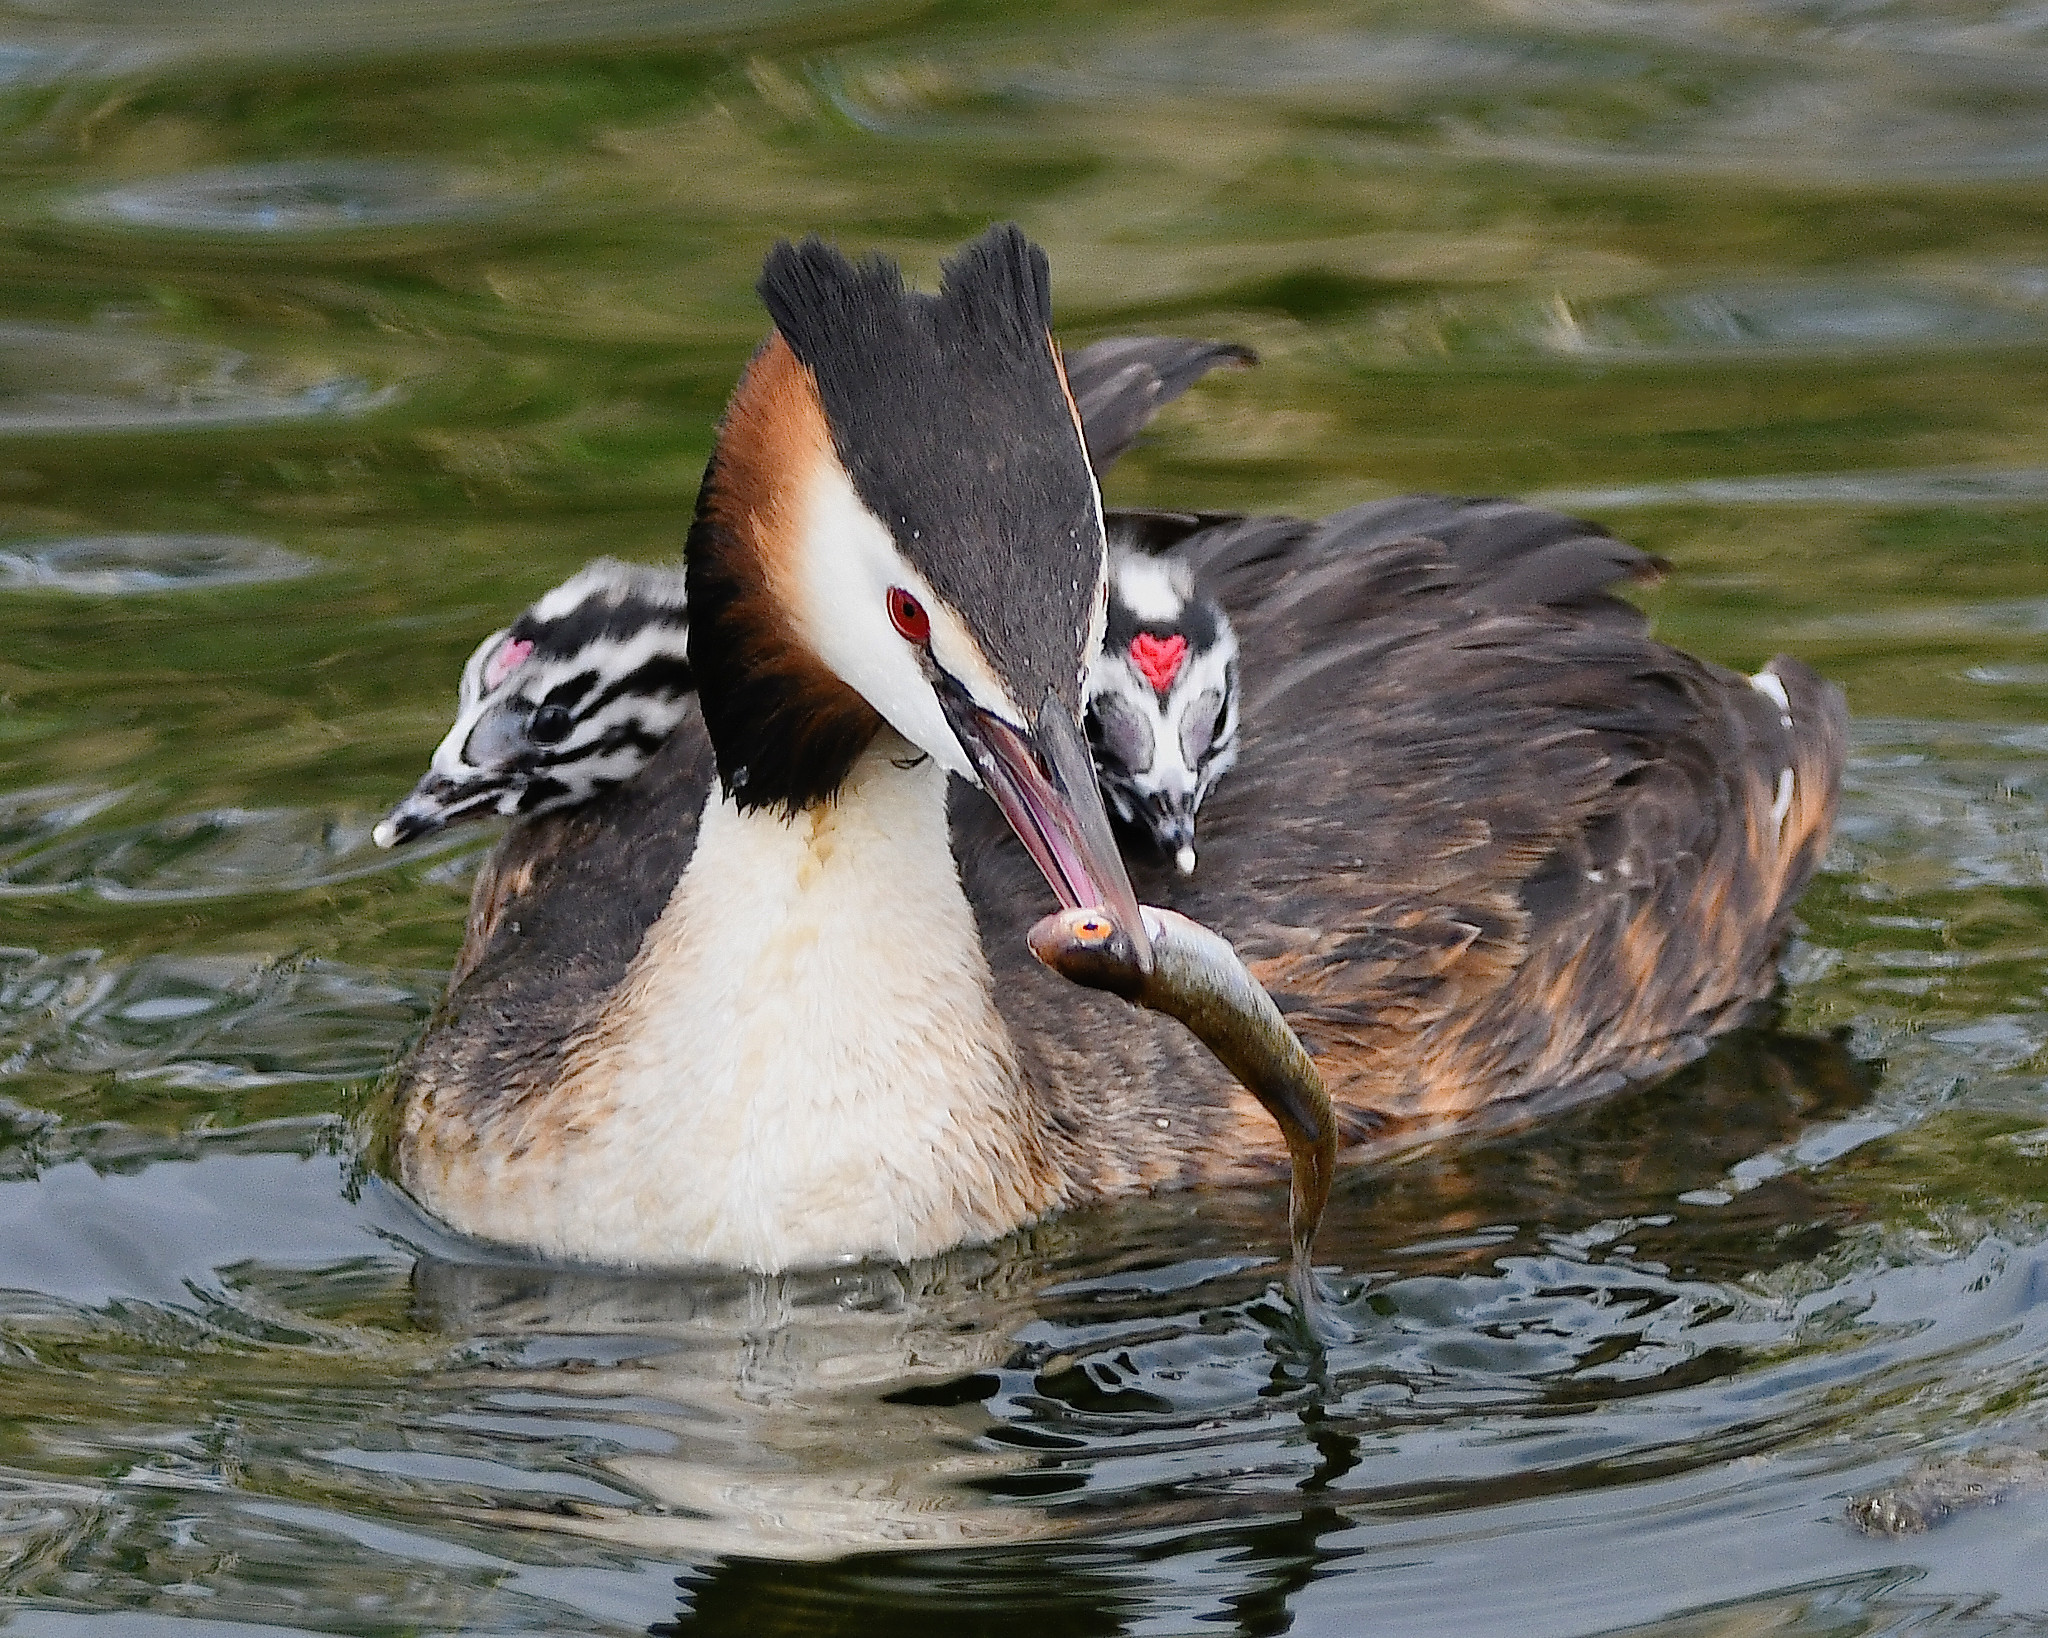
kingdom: Animalia
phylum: Chordata
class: Aves
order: Podicipediformes
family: Podicipedidae
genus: Podiceps
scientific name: Podiceps cristatus
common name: Great crested grebe
